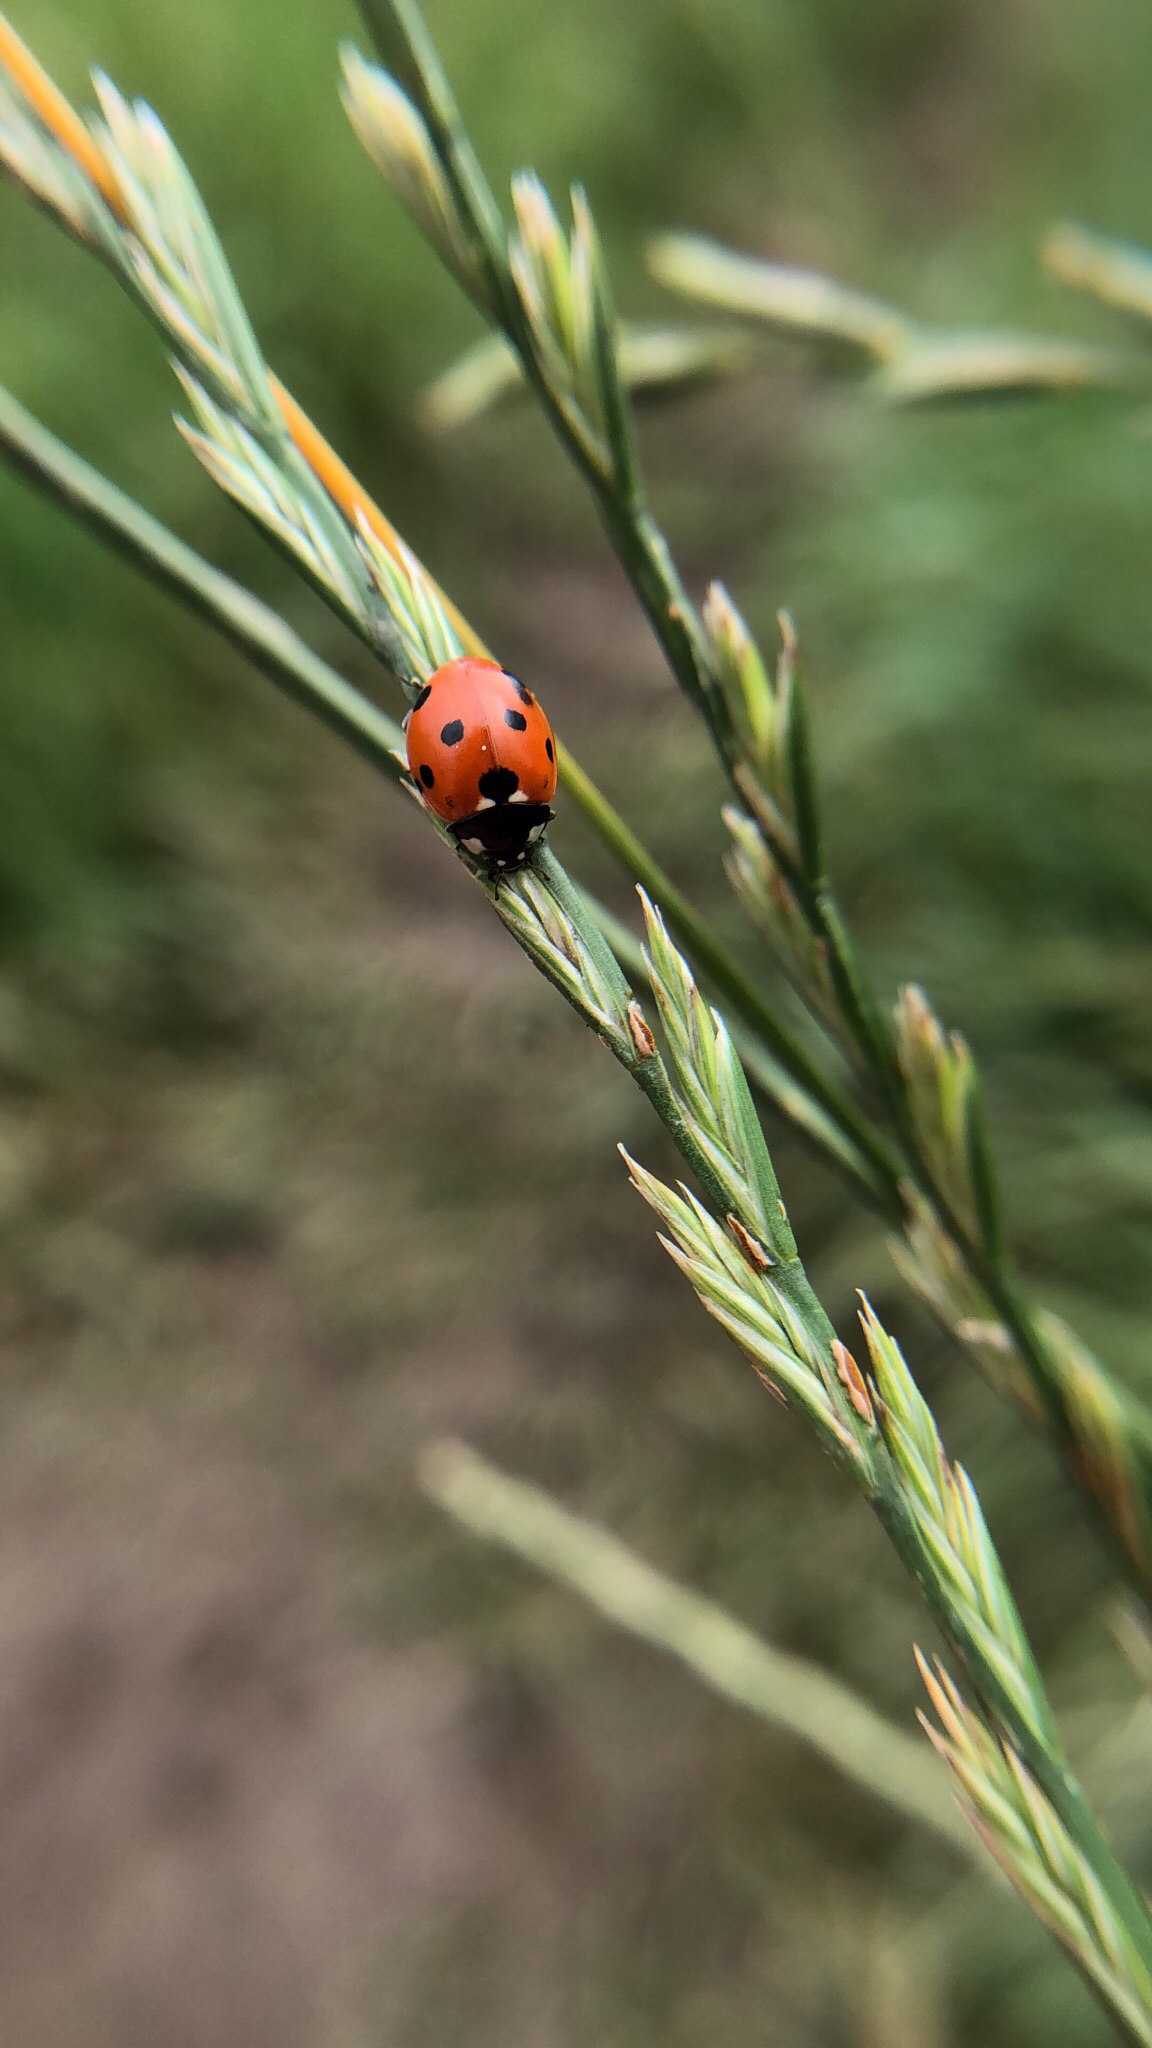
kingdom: Animalia
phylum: Arthropoda
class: Insecta
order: Coleoptera
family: Coccinellidae
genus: Coccinella
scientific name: Coccinella septempunctata
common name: Sevenspotted lady beetle
